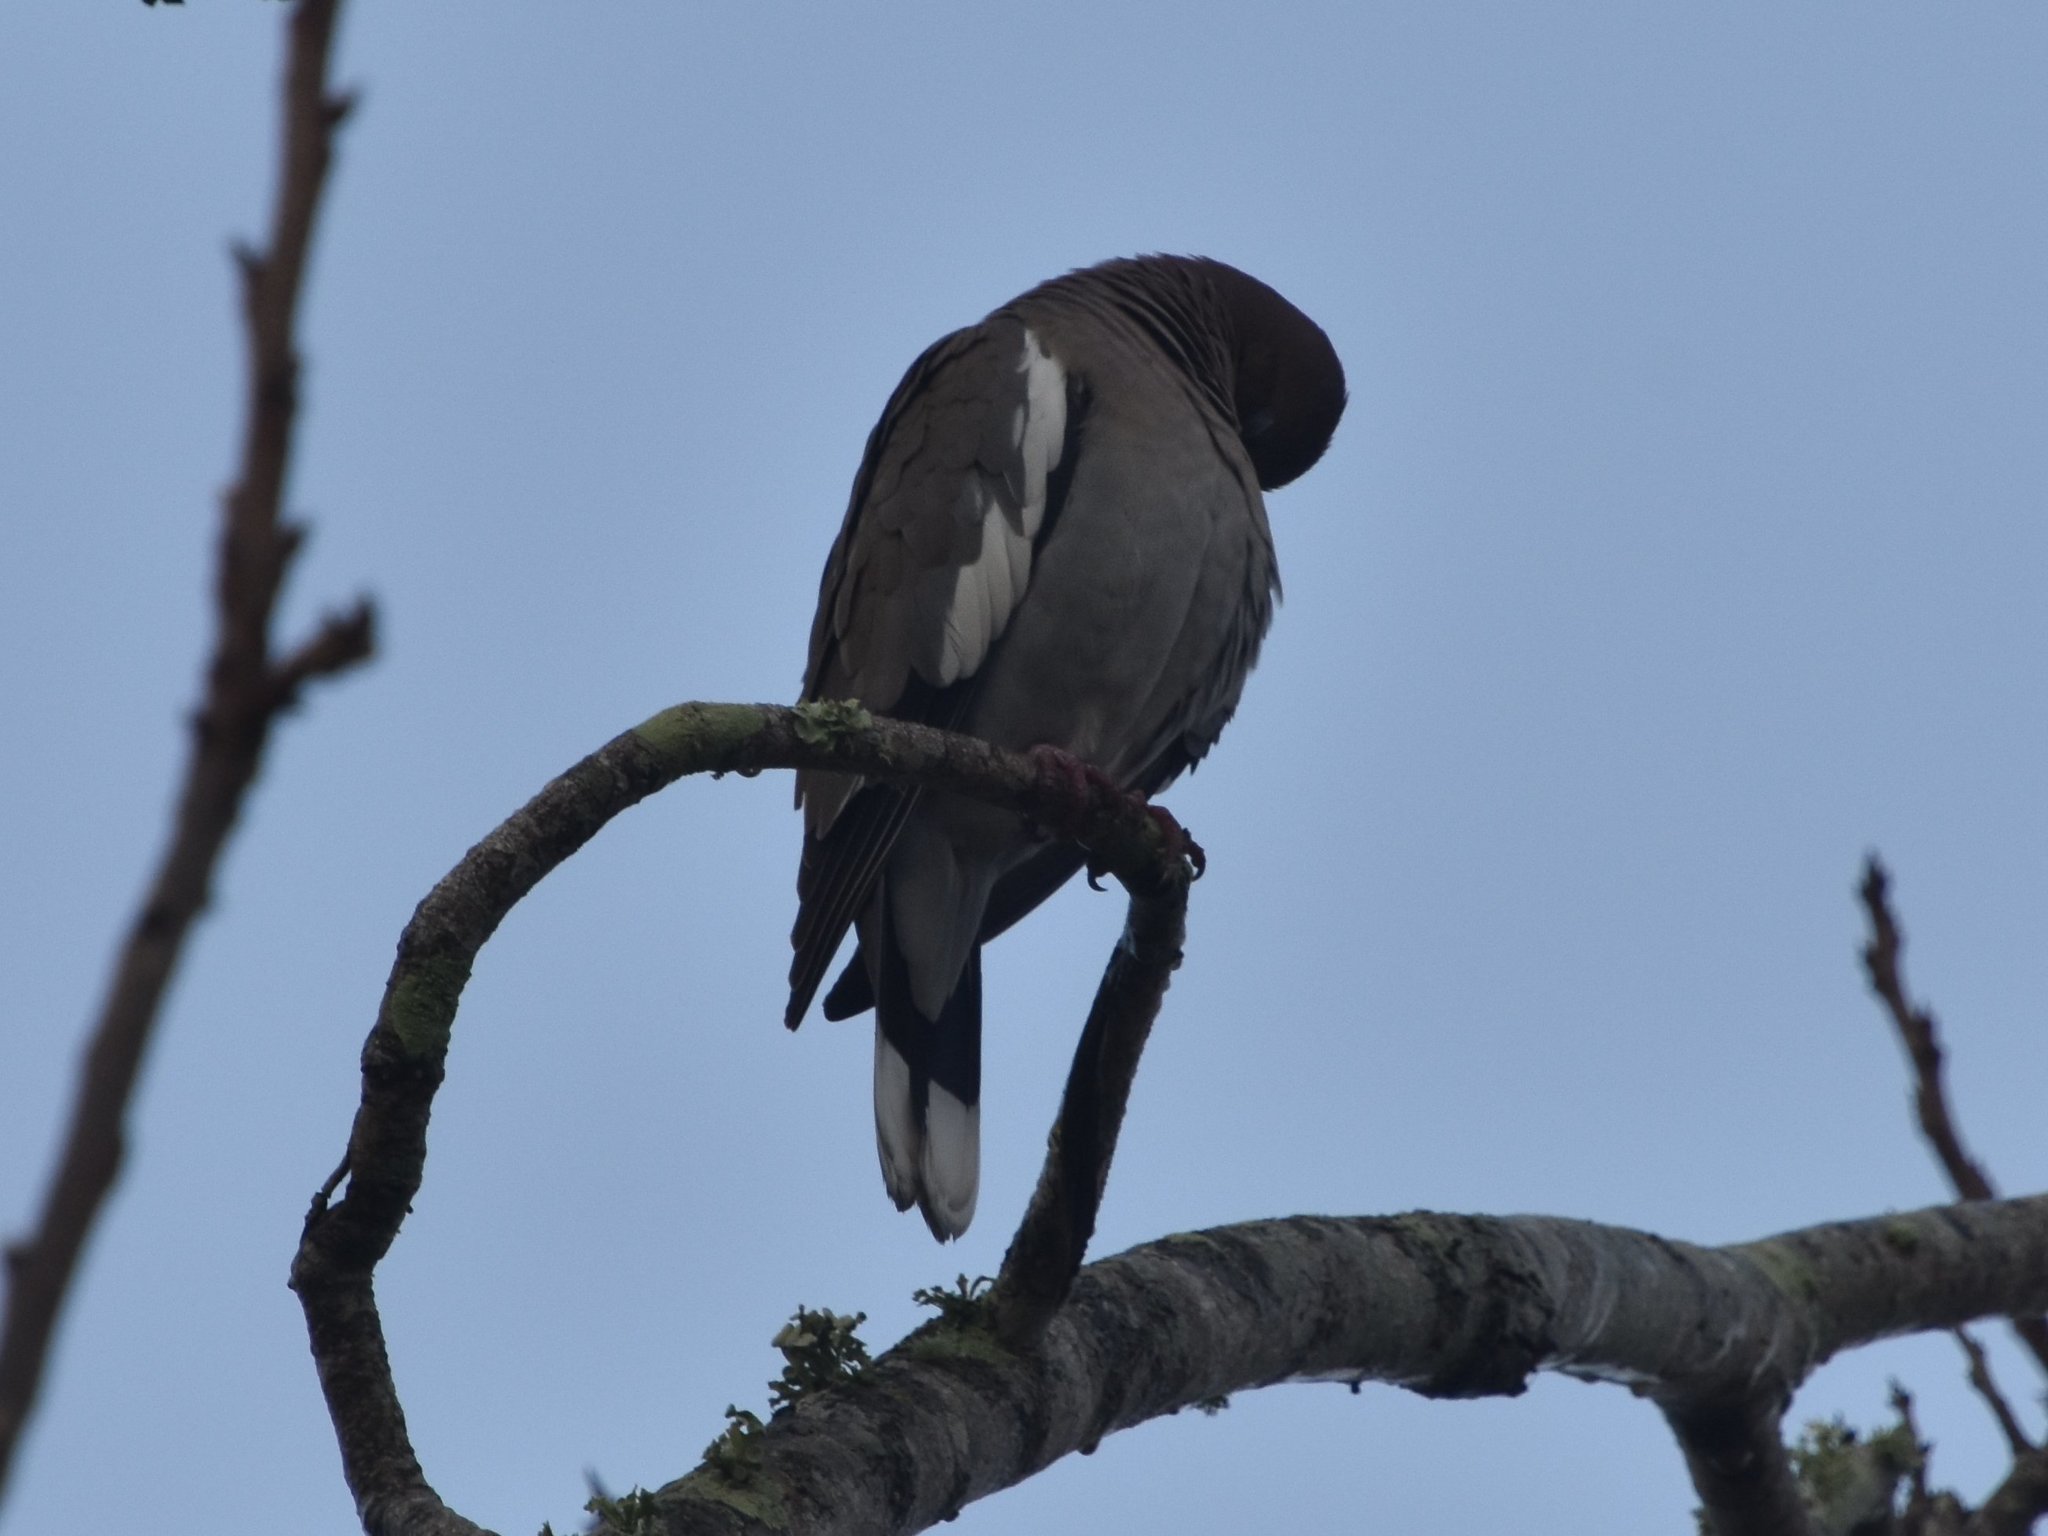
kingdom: Animalia
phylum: Chordata
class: Aves
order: Columbiformes
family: Columbidae
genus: Zenaida
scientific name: Zenaida asiatica
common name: White-winged dove
